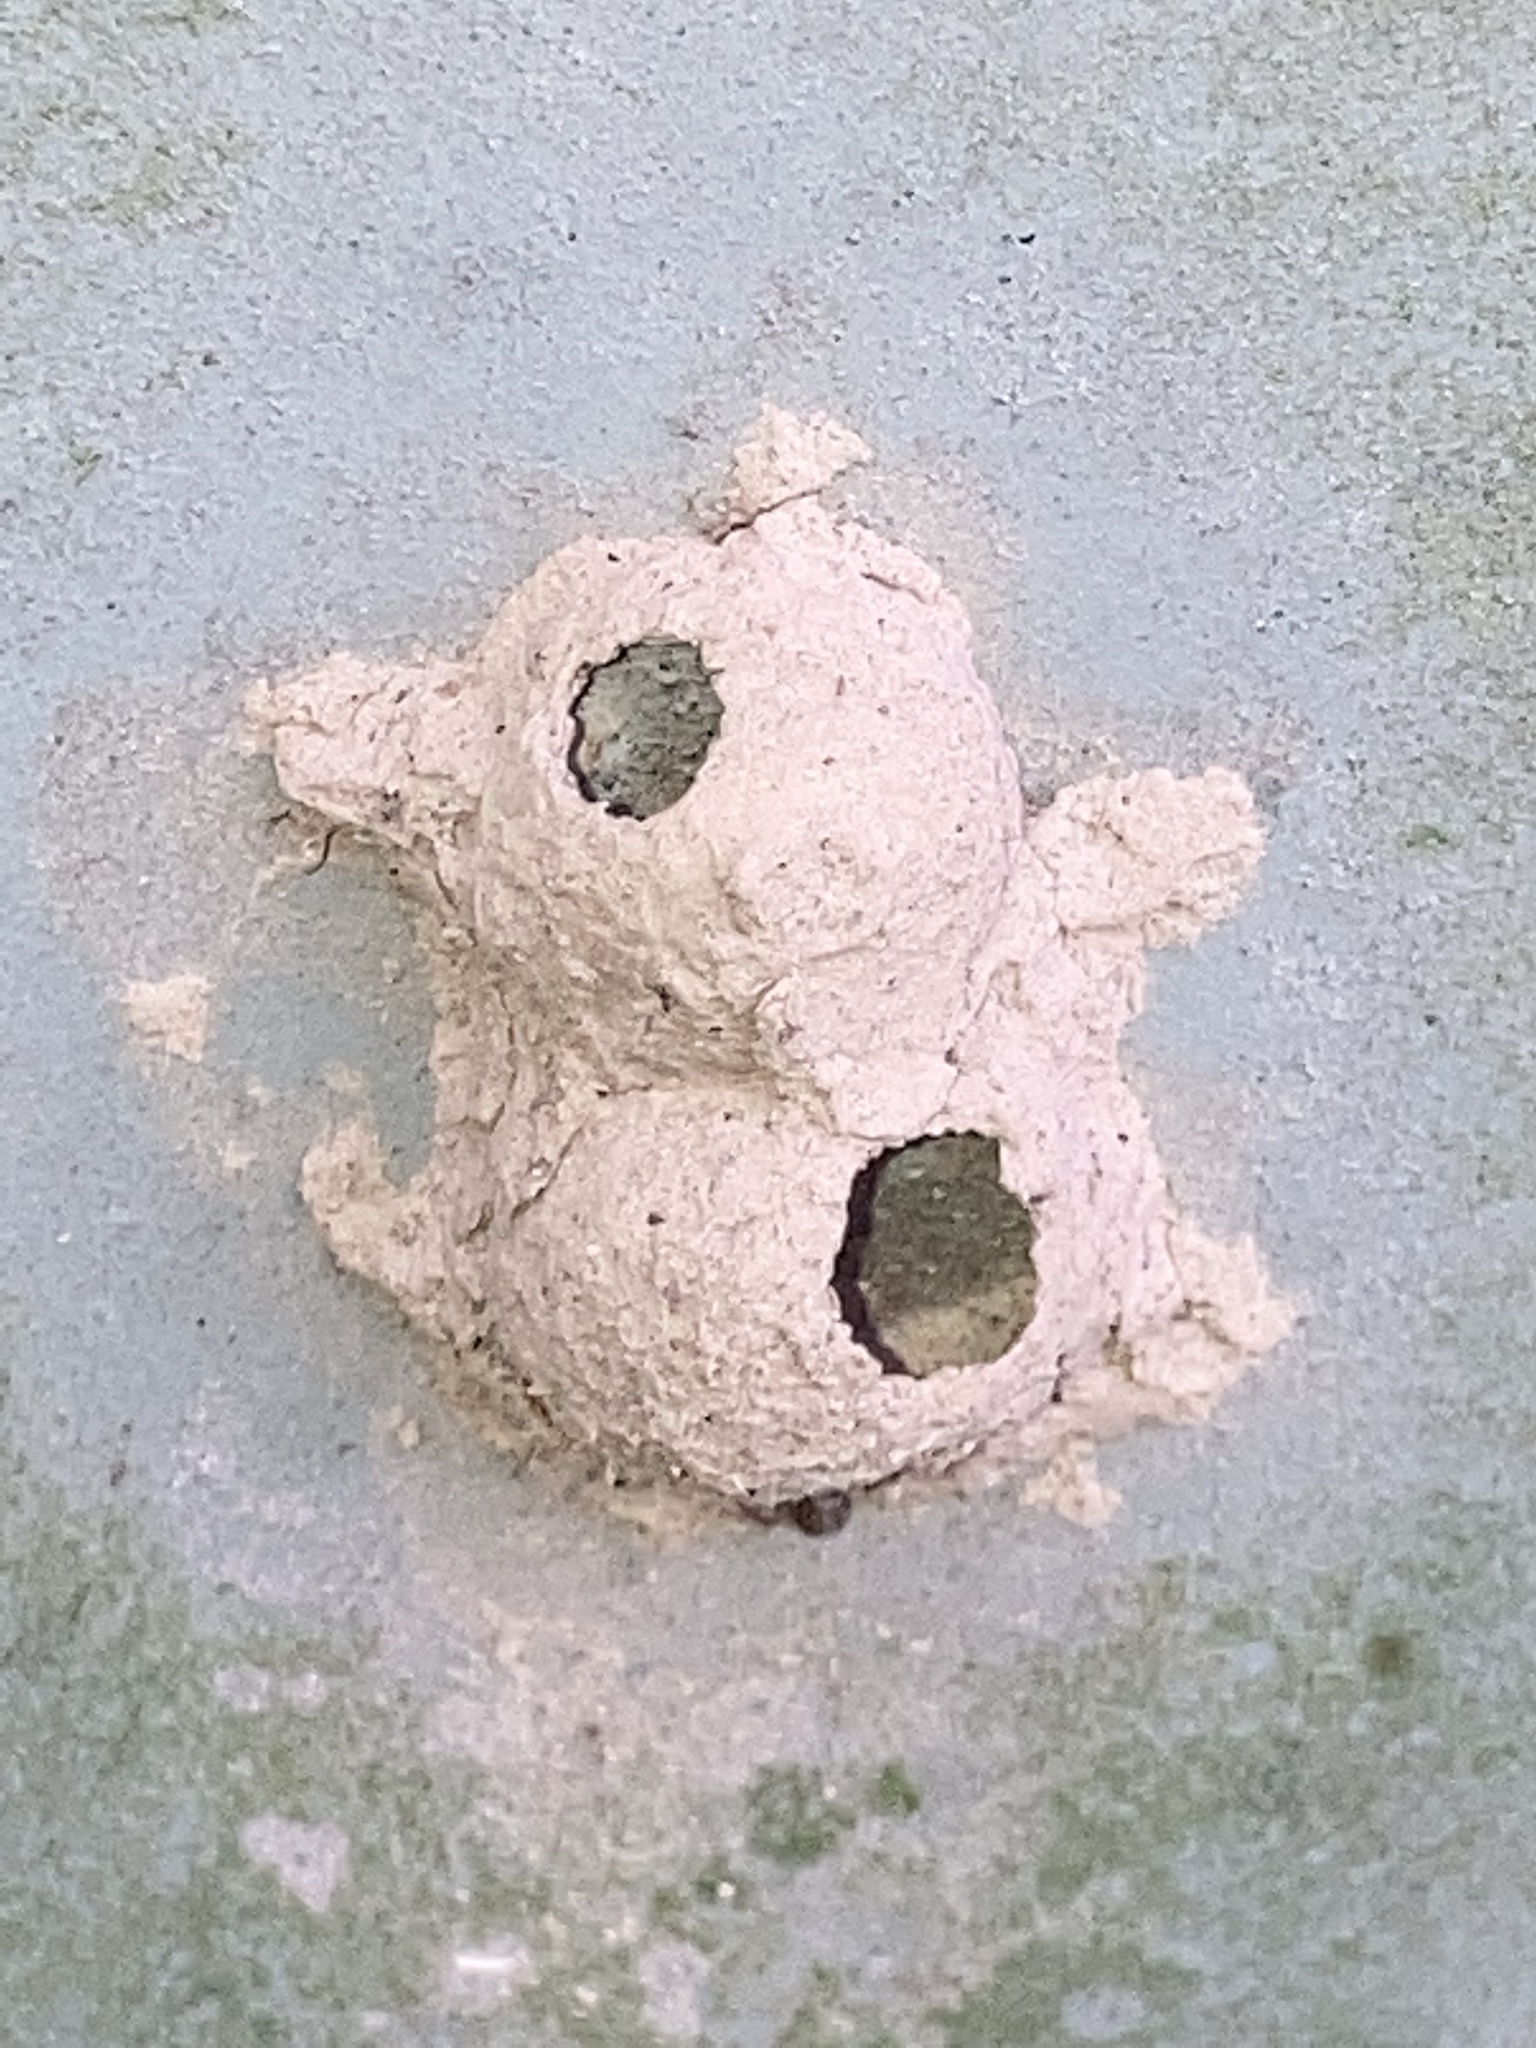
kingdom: Animalia
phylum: Arthropoda
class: Insecta
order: Hymenoptera
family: Vespidae
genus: Eumenes
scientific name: Eumenes
